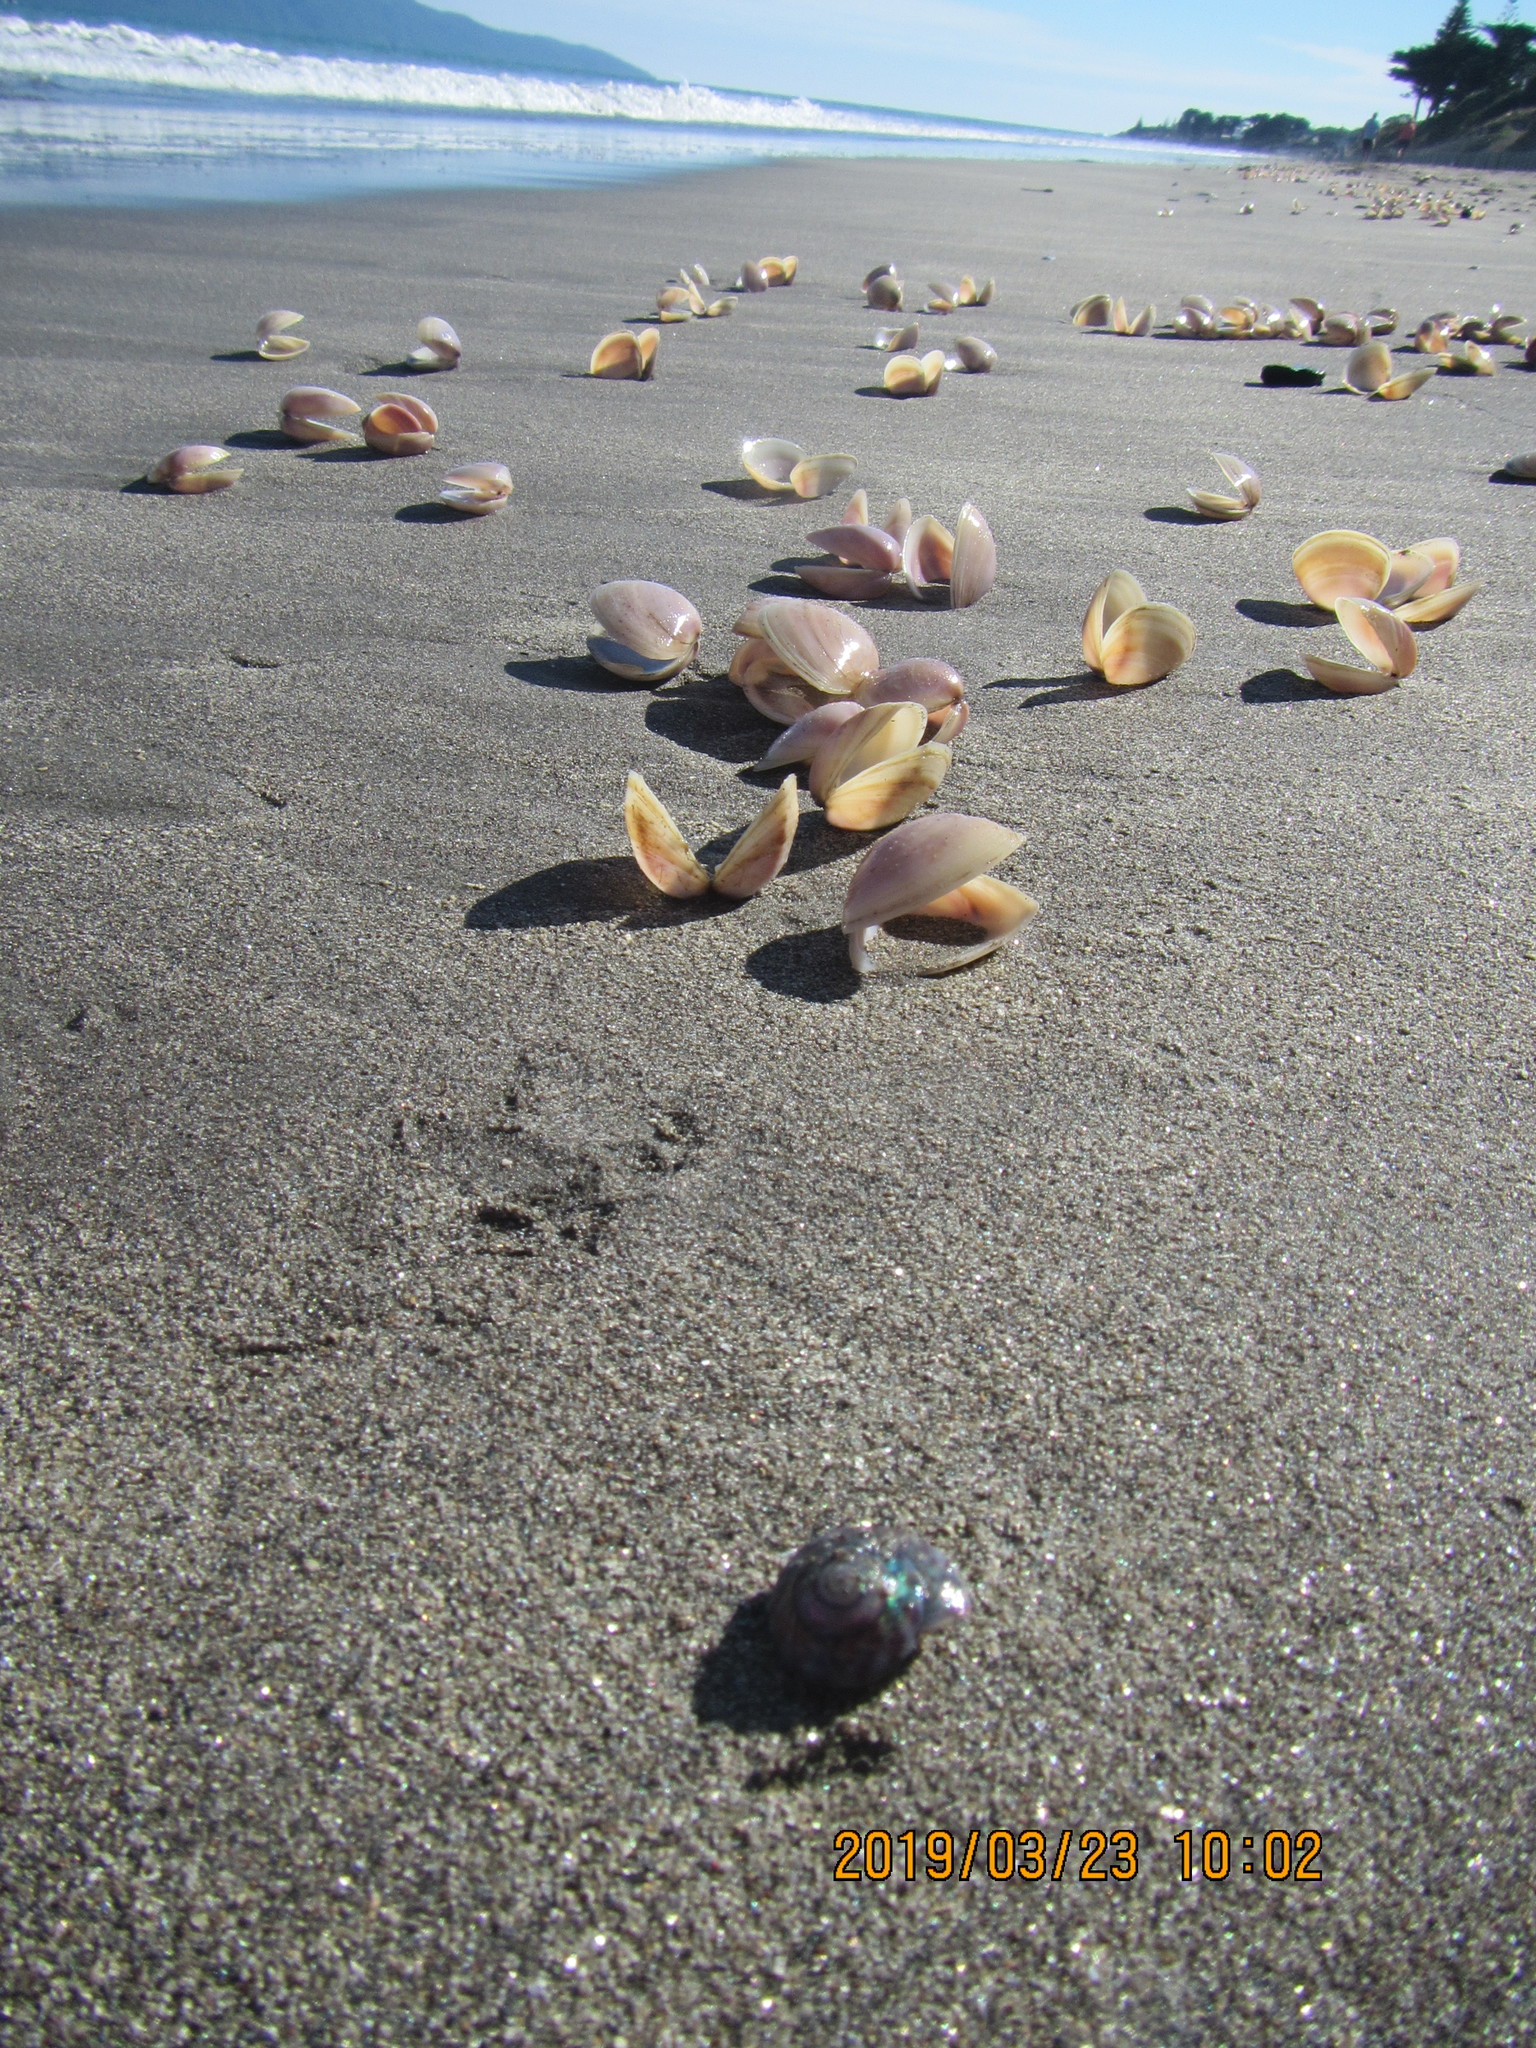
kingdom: Animalia
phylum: Mollusca
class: Gastropoda
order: Trochida
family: Trochidae
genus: Zethalia
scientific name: Zethalia zelandica
